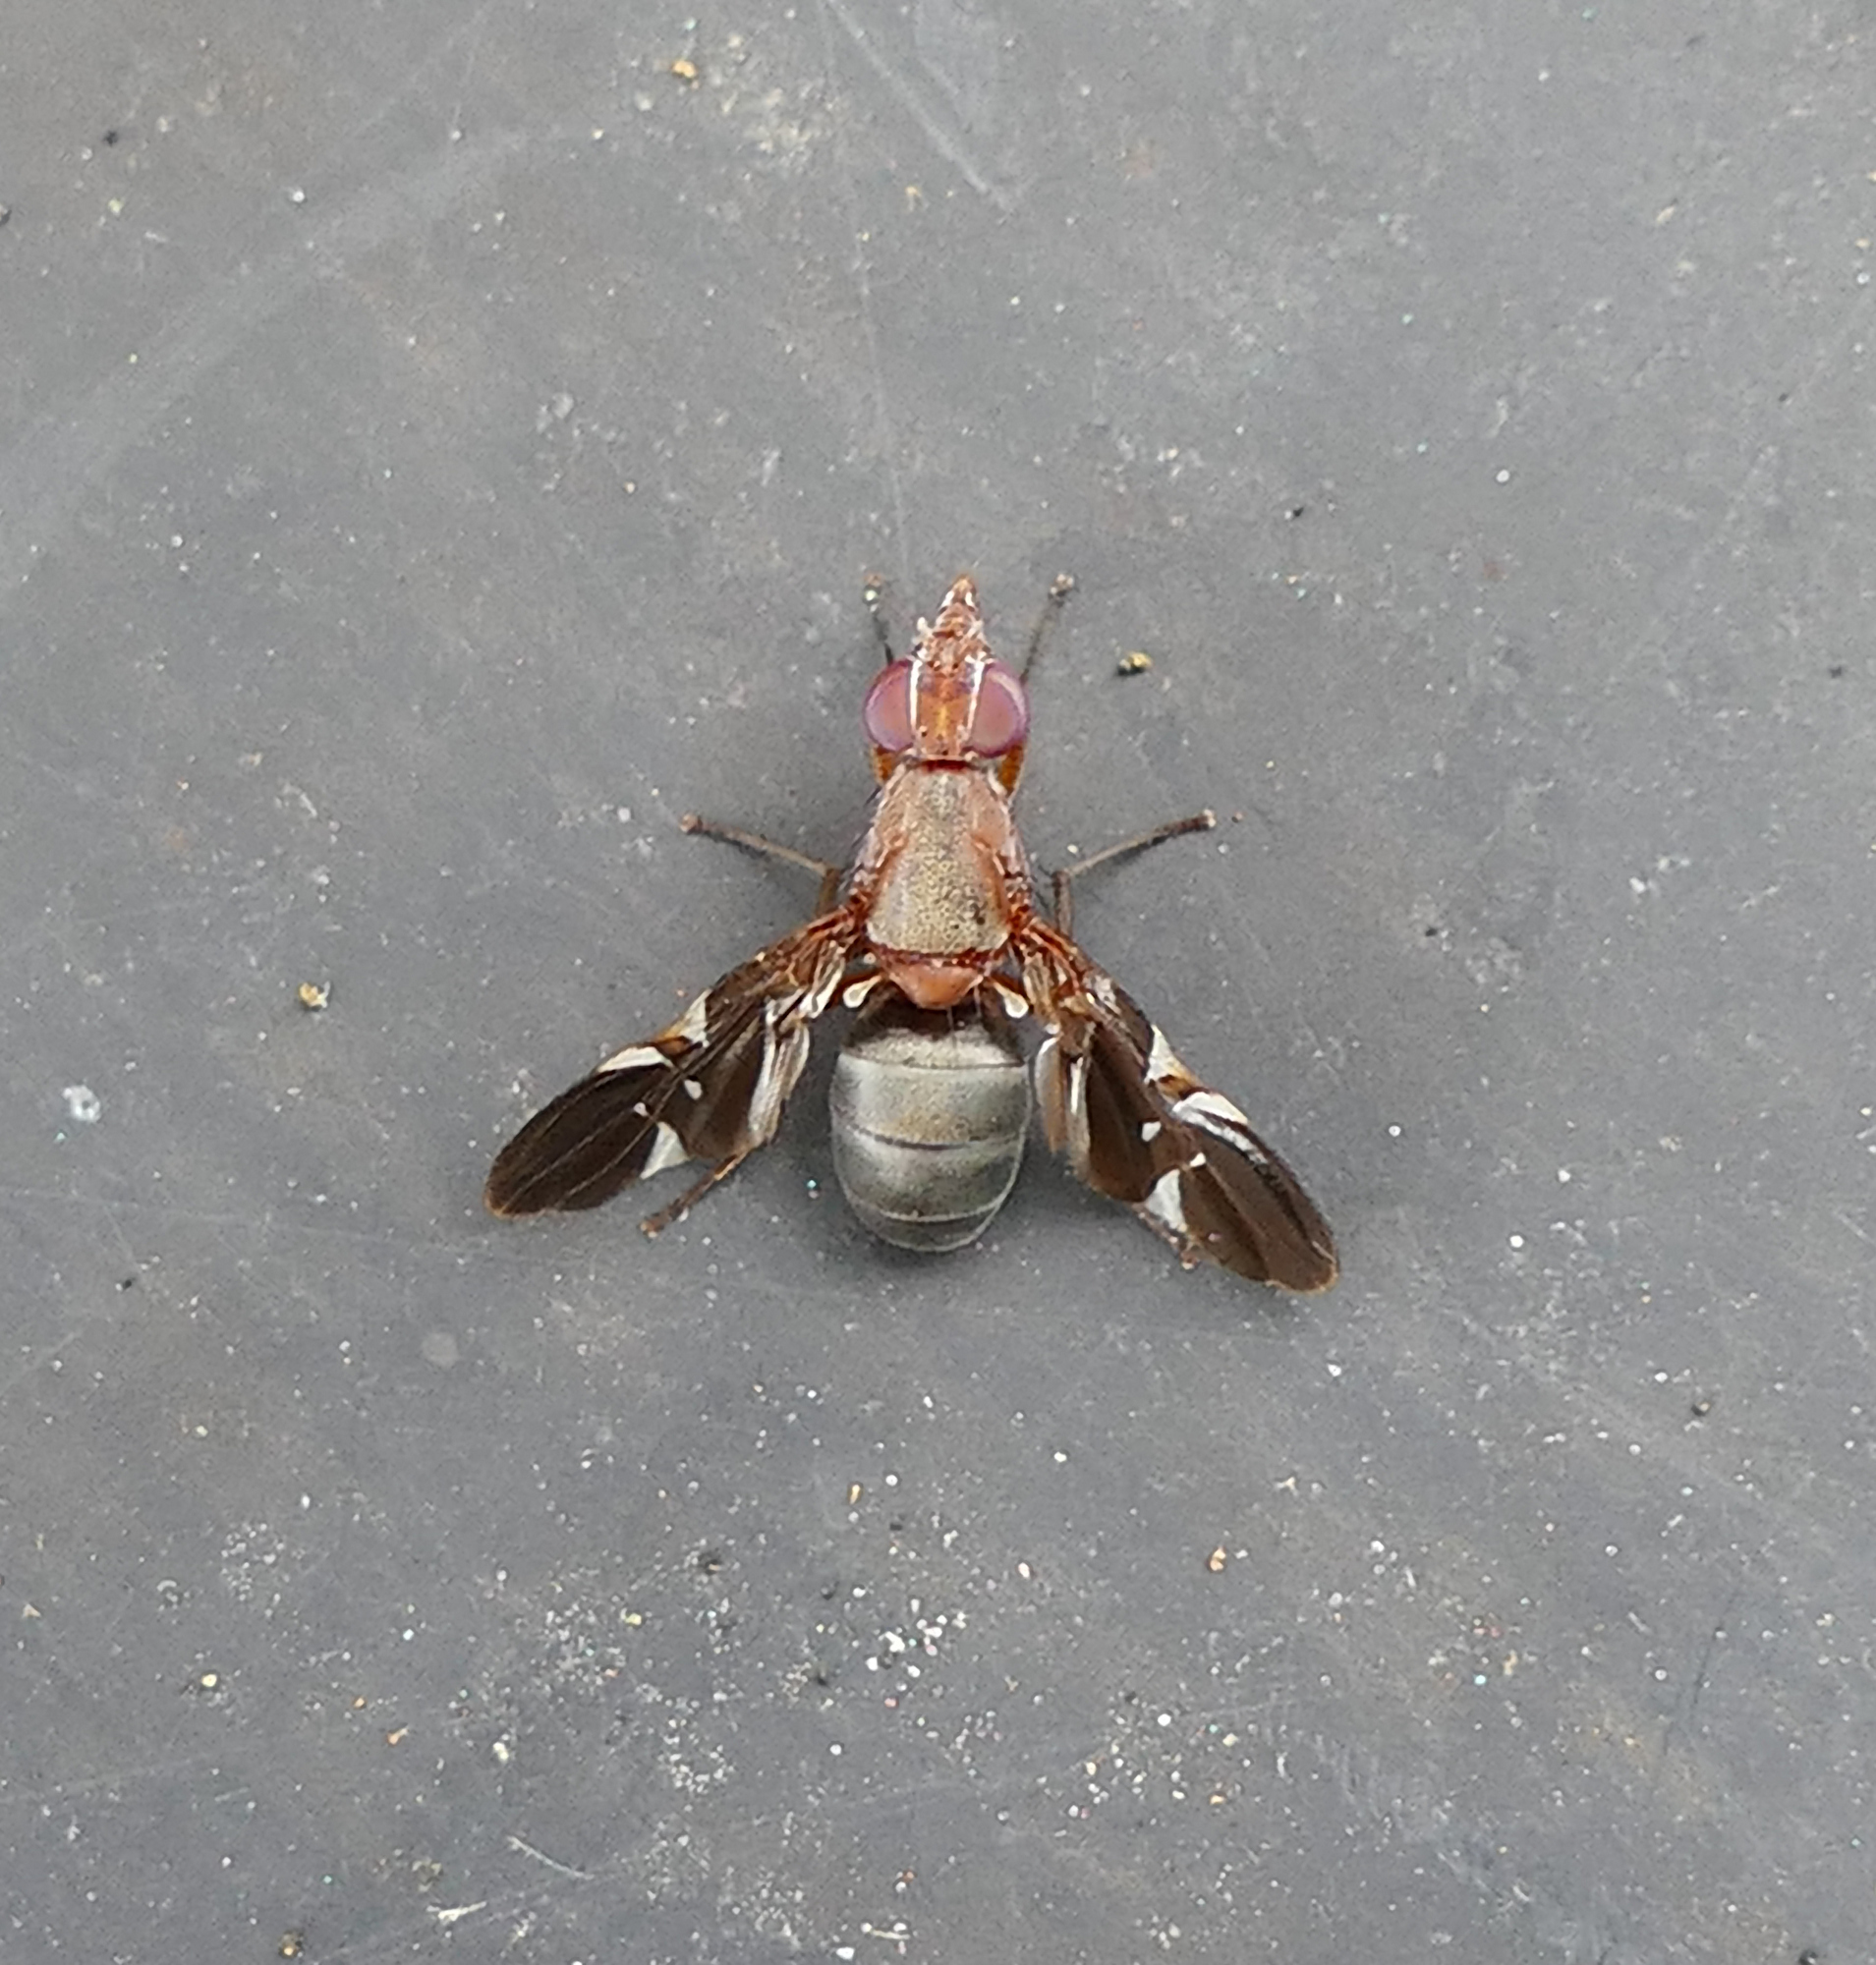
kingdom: Animalia
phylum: Arthropoda
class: Insecta
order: Diptera
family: Ulidiidae
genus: Delphinia
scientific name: Delphinia picta
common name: Common picture-winged fly
